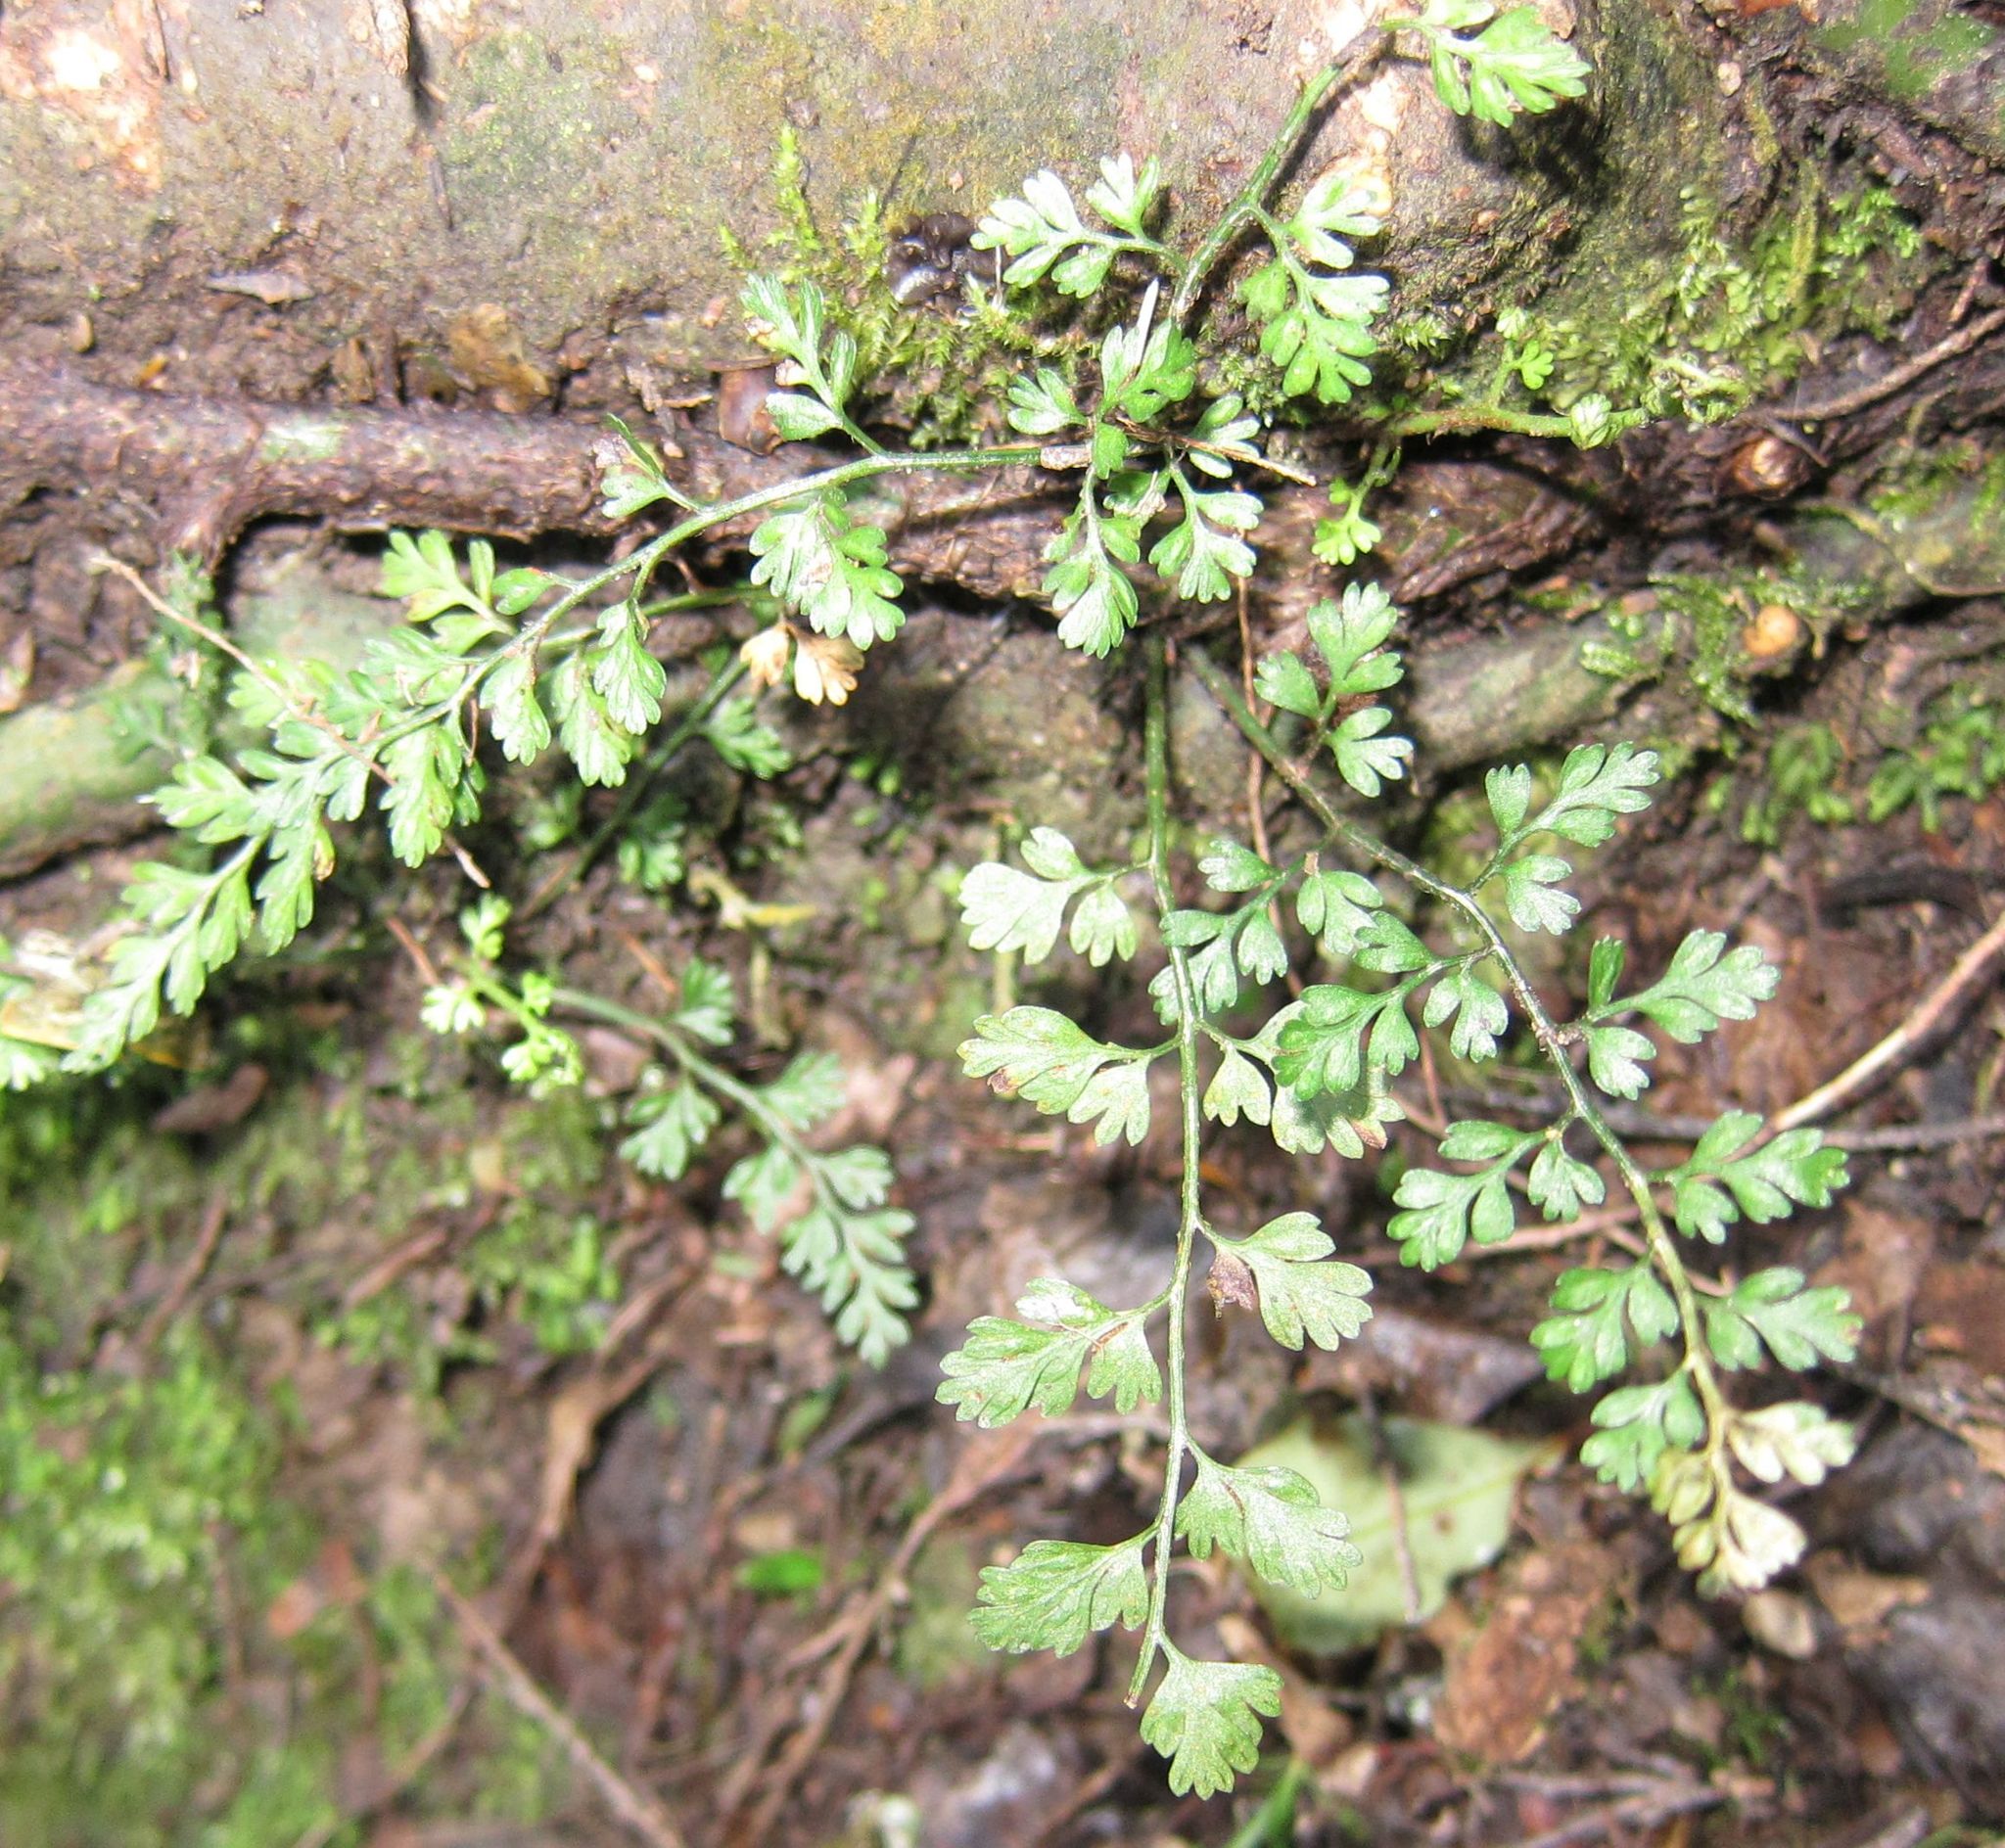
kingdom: Plantae
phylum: Tracheophyta
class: Polypodiopsida
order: Polypodiales
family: Aspleniaceae
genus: Asplenium
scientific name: Asplenium hookerianum
